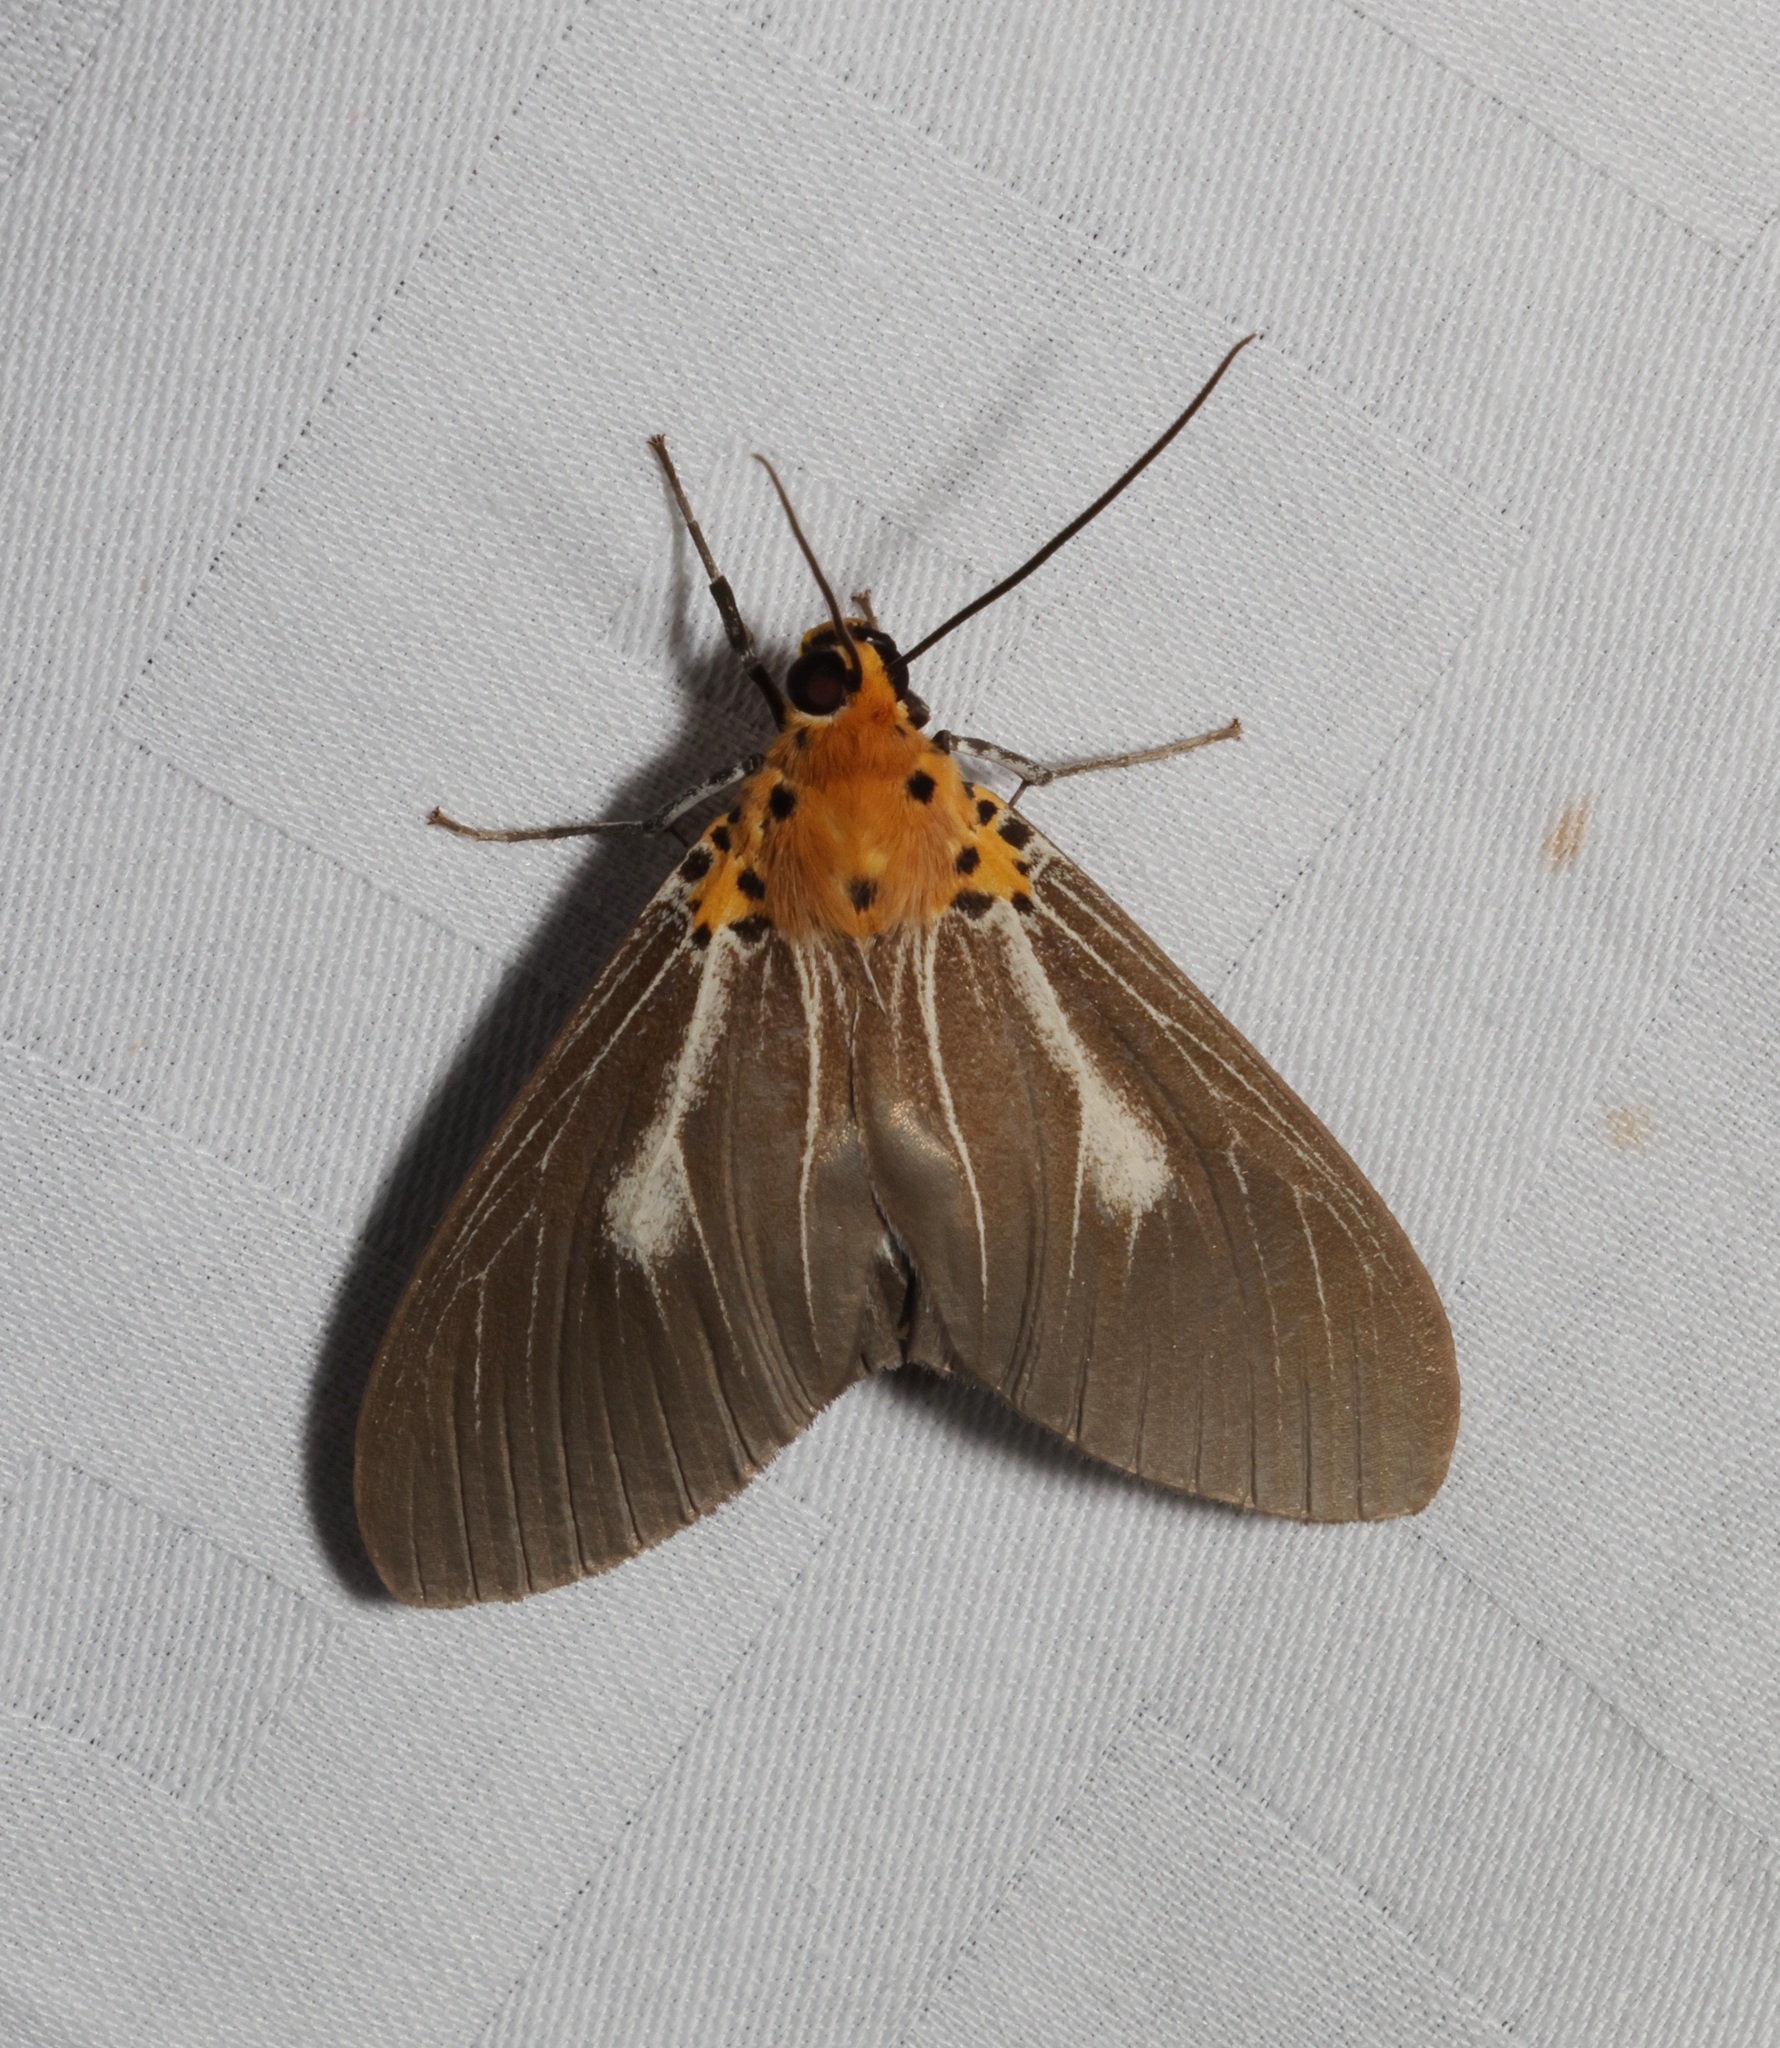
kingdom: Animalia
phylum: Arthropoda
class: Insecta
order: Lepidoptera
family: Erebidae
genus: Asota
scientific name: Asota heliconia
